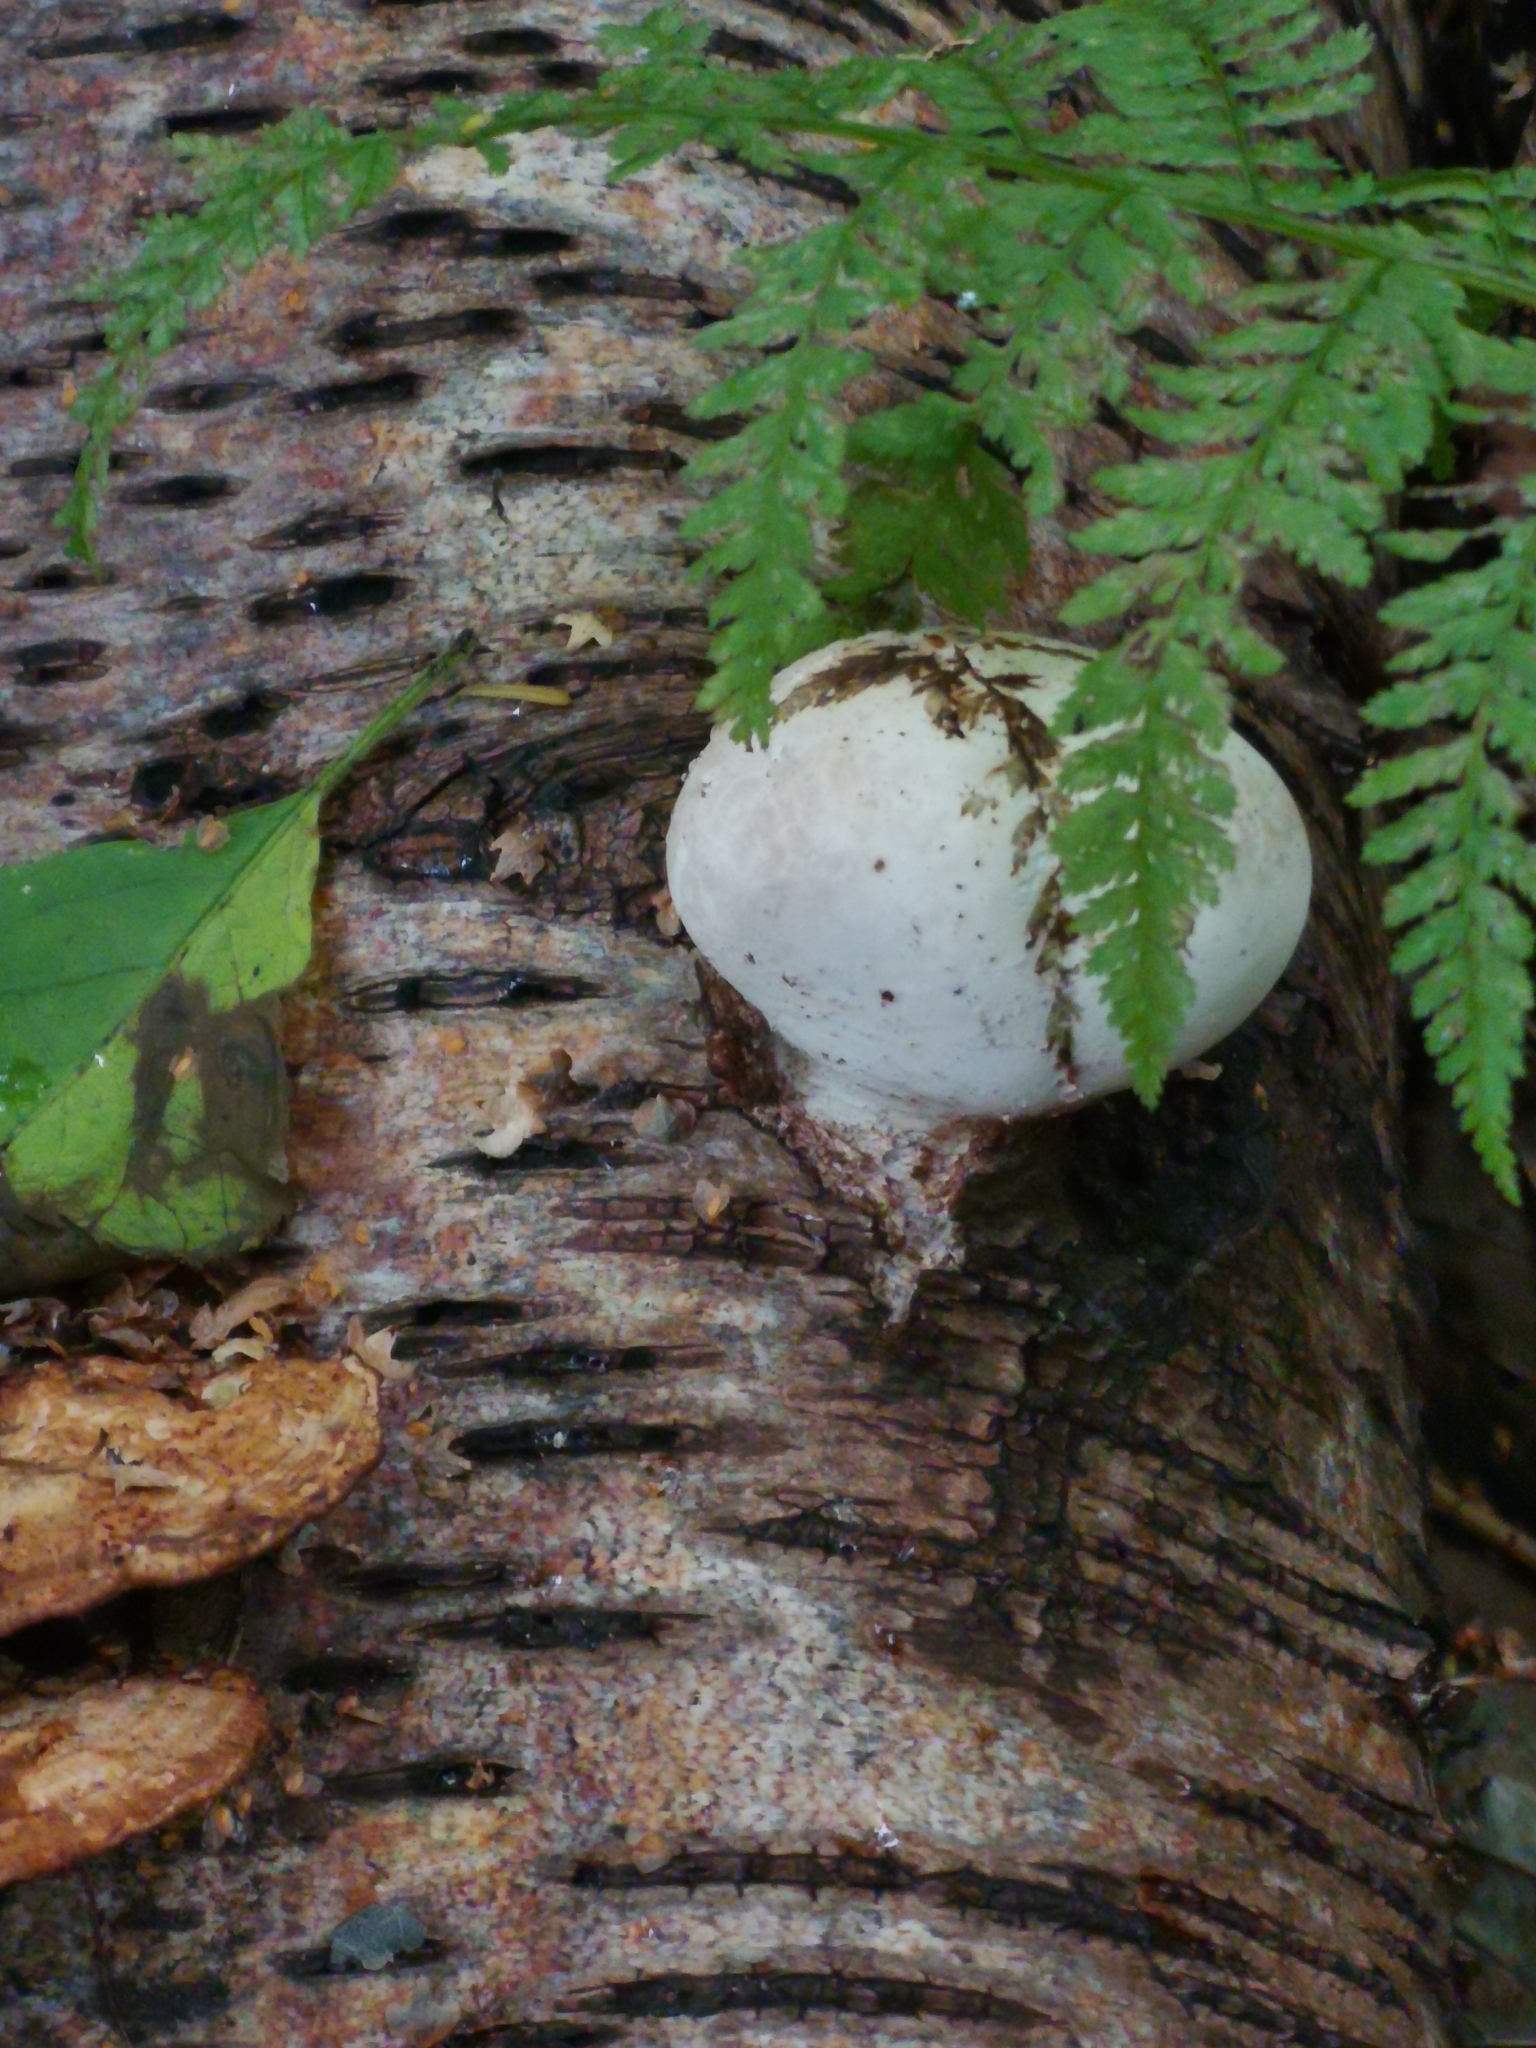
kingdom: Fungi
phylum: Basidiomycota
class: Agaricomycetes
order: Polyporales
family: Fomitopsidaceae
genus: Fomitopsis
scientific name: Fomitopsis betulina
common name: Birch polypore
